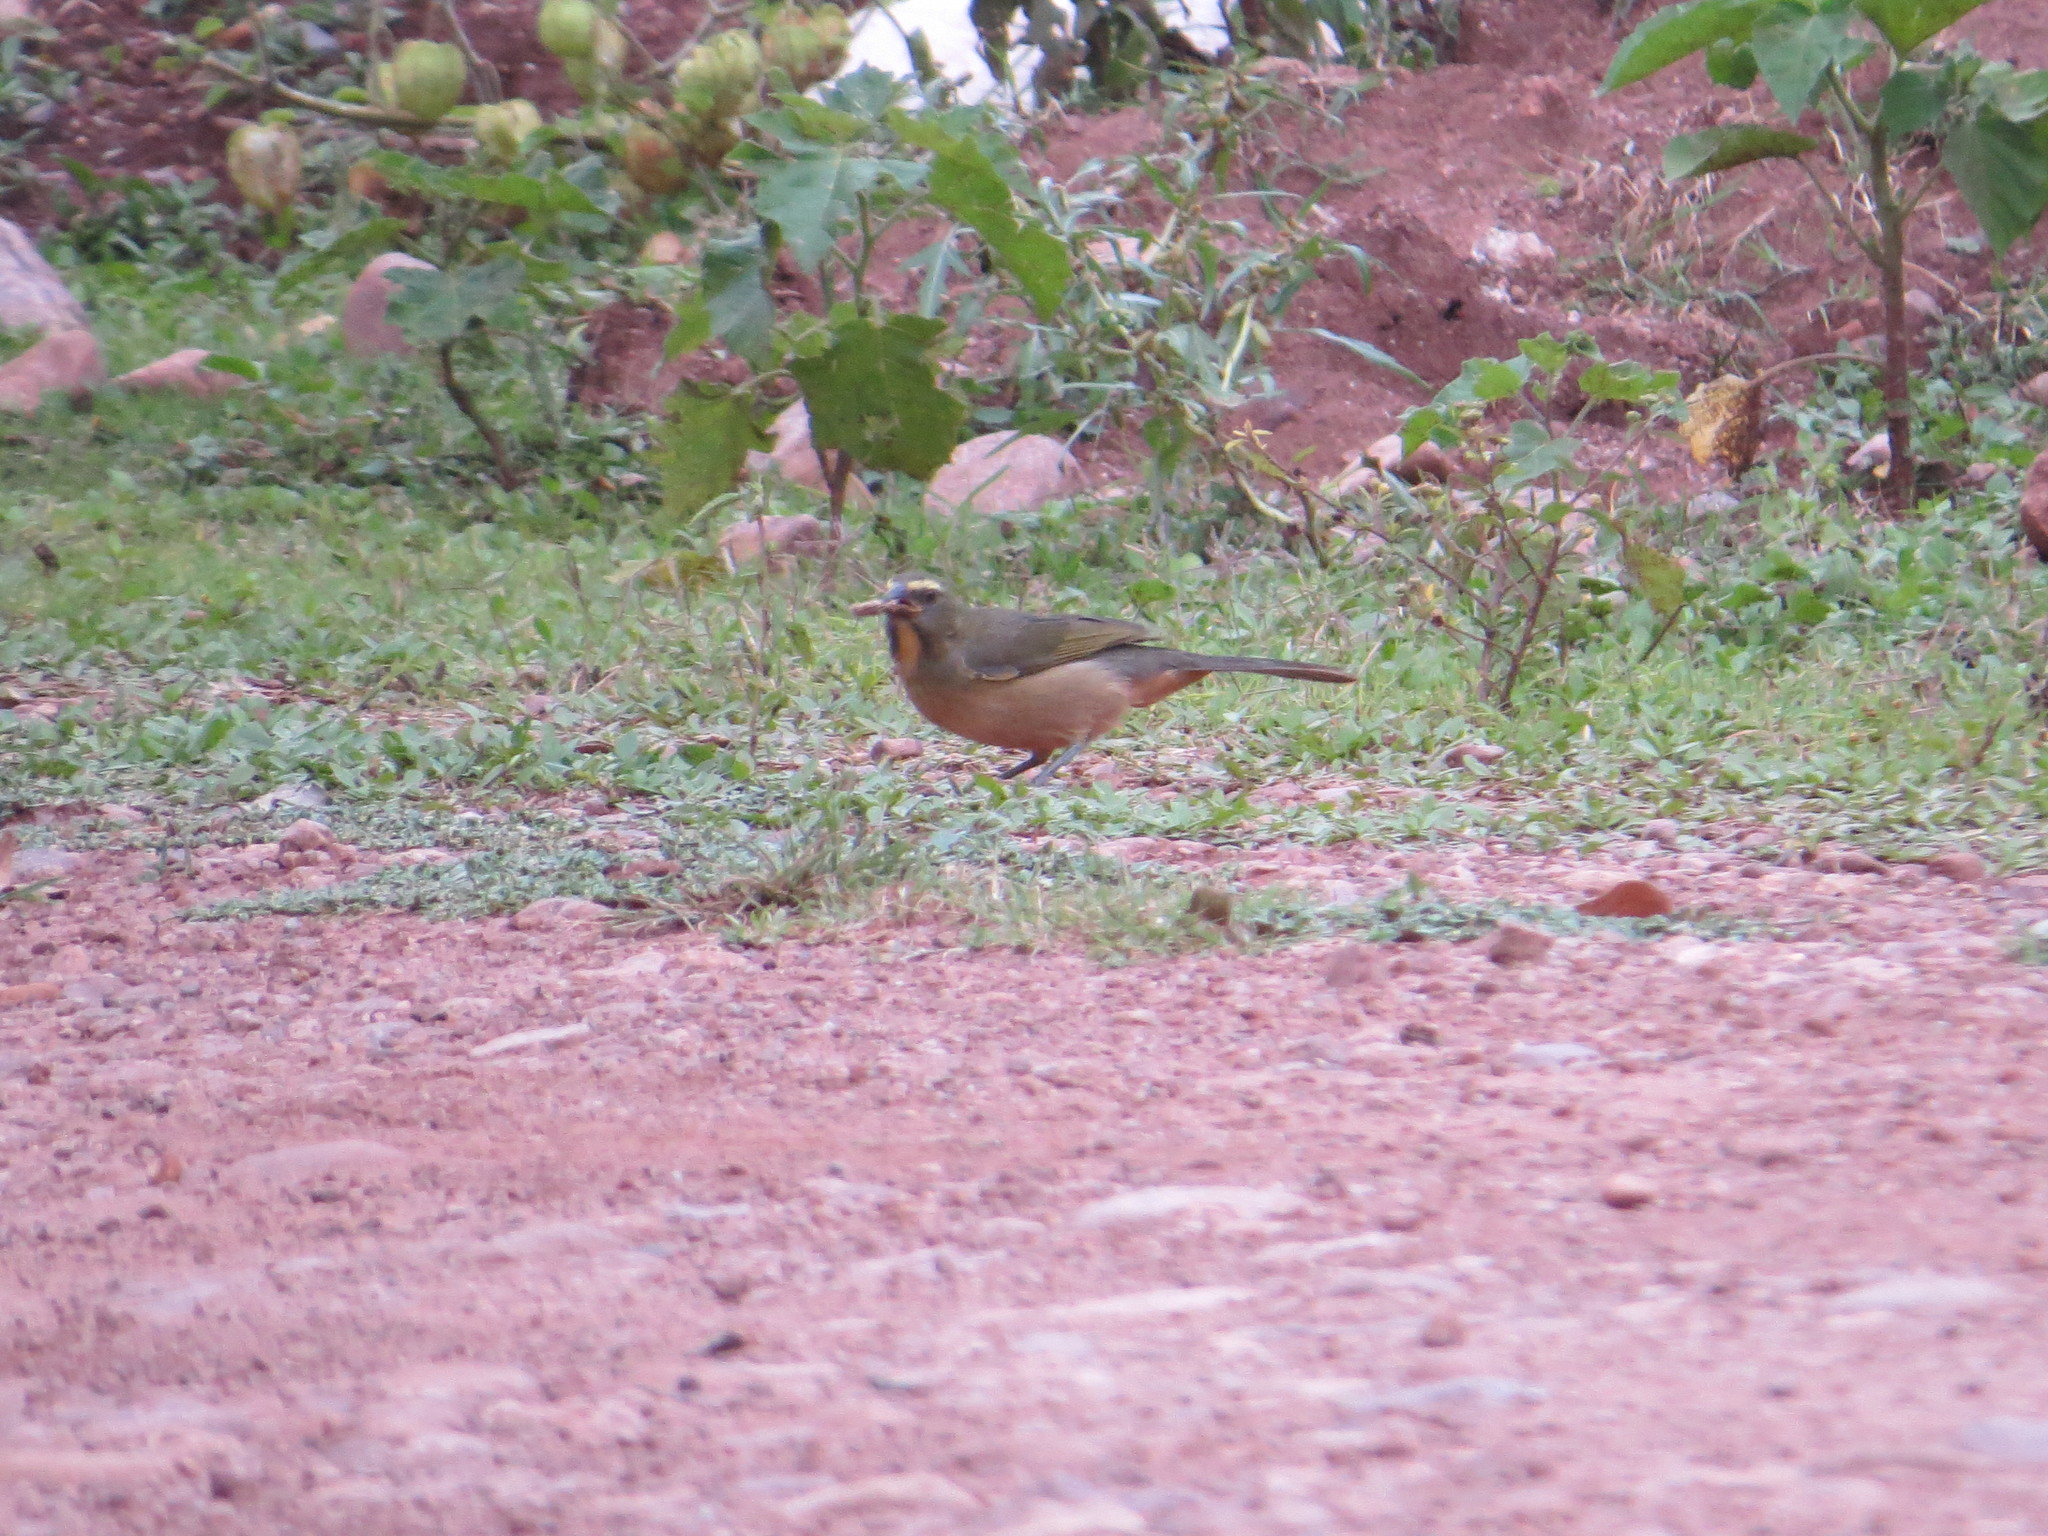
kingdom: Animalia
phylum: Chordata
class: Aves
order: Passeriformes
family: Thraupidae
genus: Saltator
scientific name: Saltator coerulescens
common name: Grayish saltator
